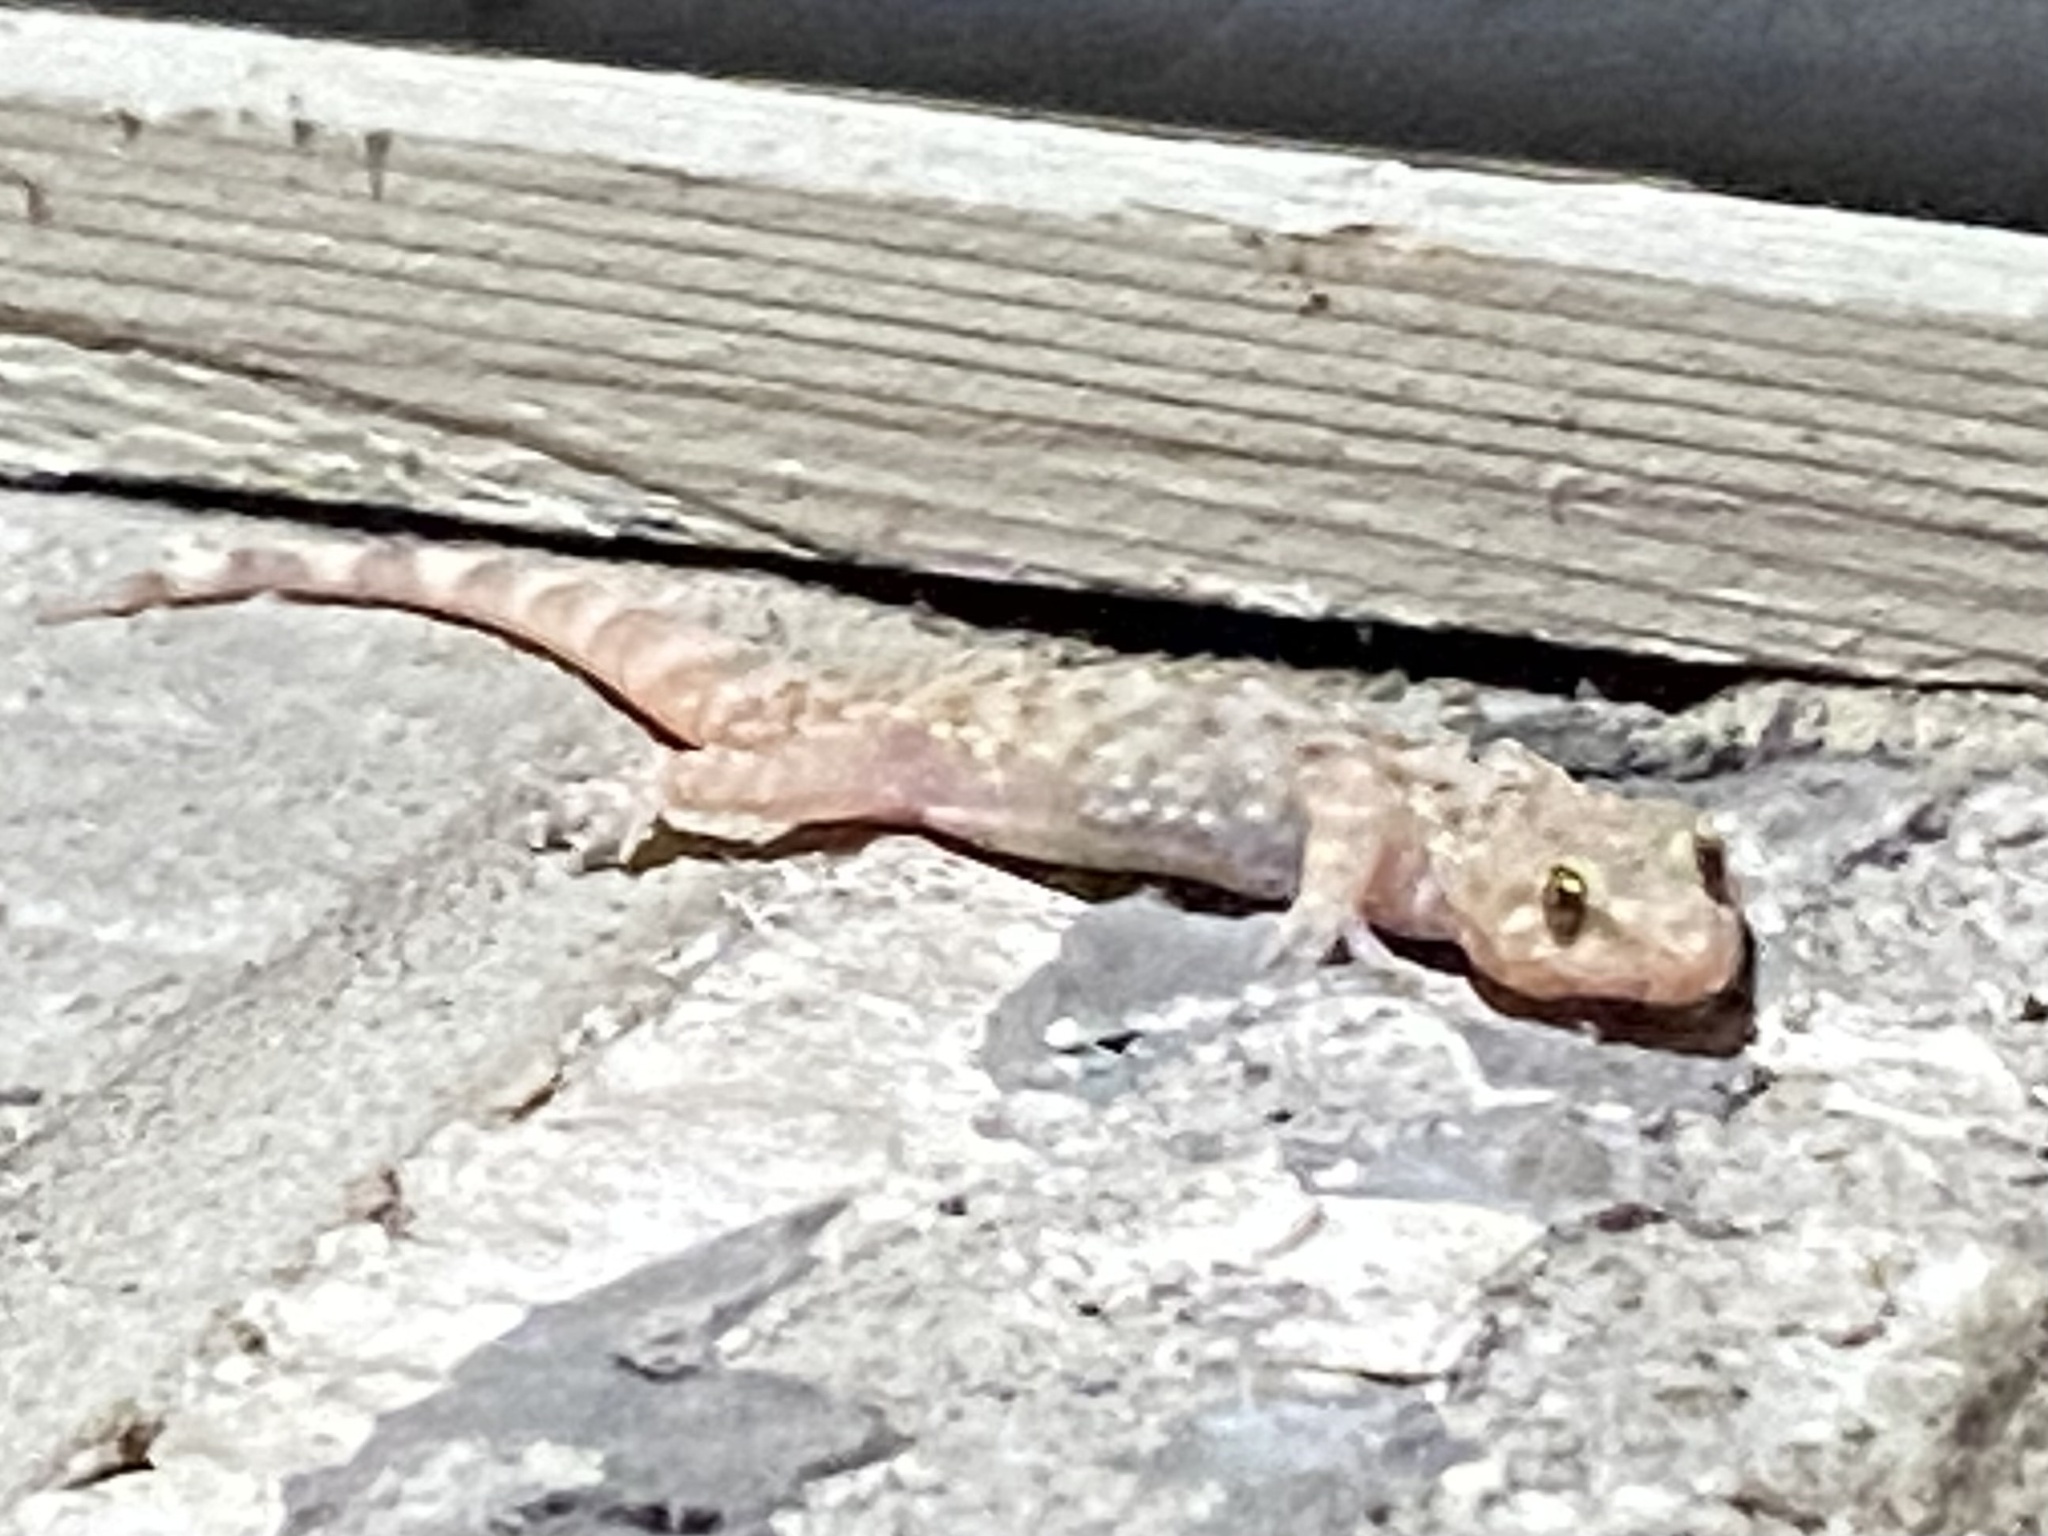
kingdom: Animalia
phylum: Chordata
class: Squamata
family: Gekkonidae
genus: Hemidactylus
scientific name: Hemidactylus turcicus
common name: Turkish gecko
